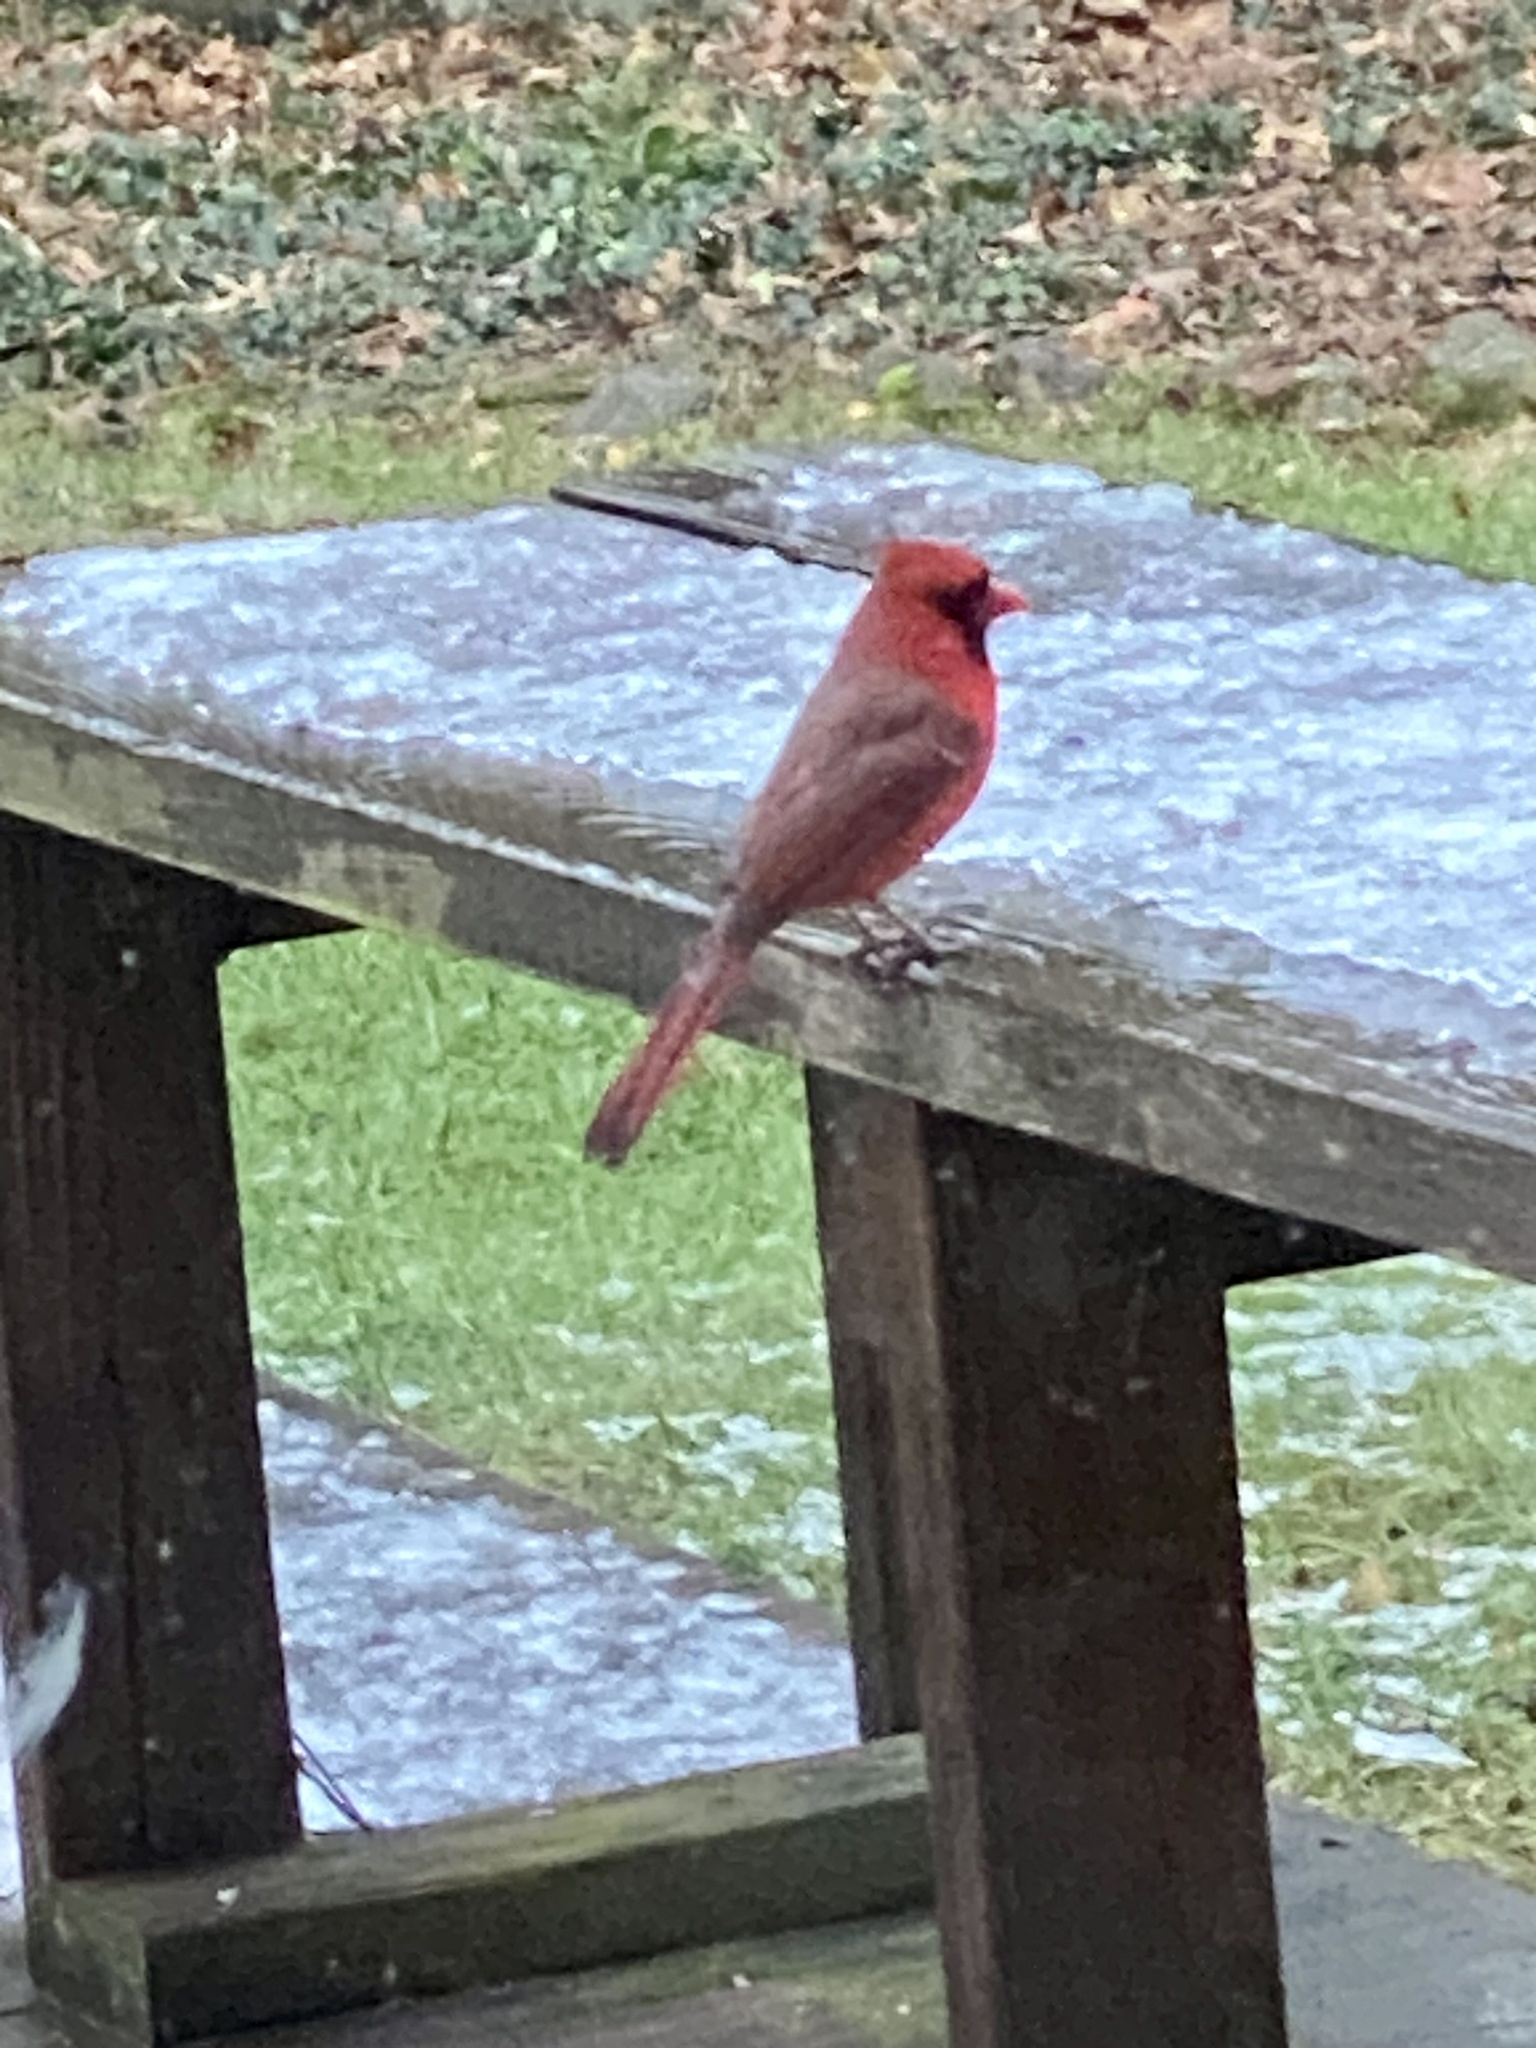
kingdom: Animalia
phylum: Chordata
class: Aves
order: Passeriformes
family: Cardinalidae
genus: Cardinalis
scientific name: Cardinalis cardinalis
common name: Northern cardinal
